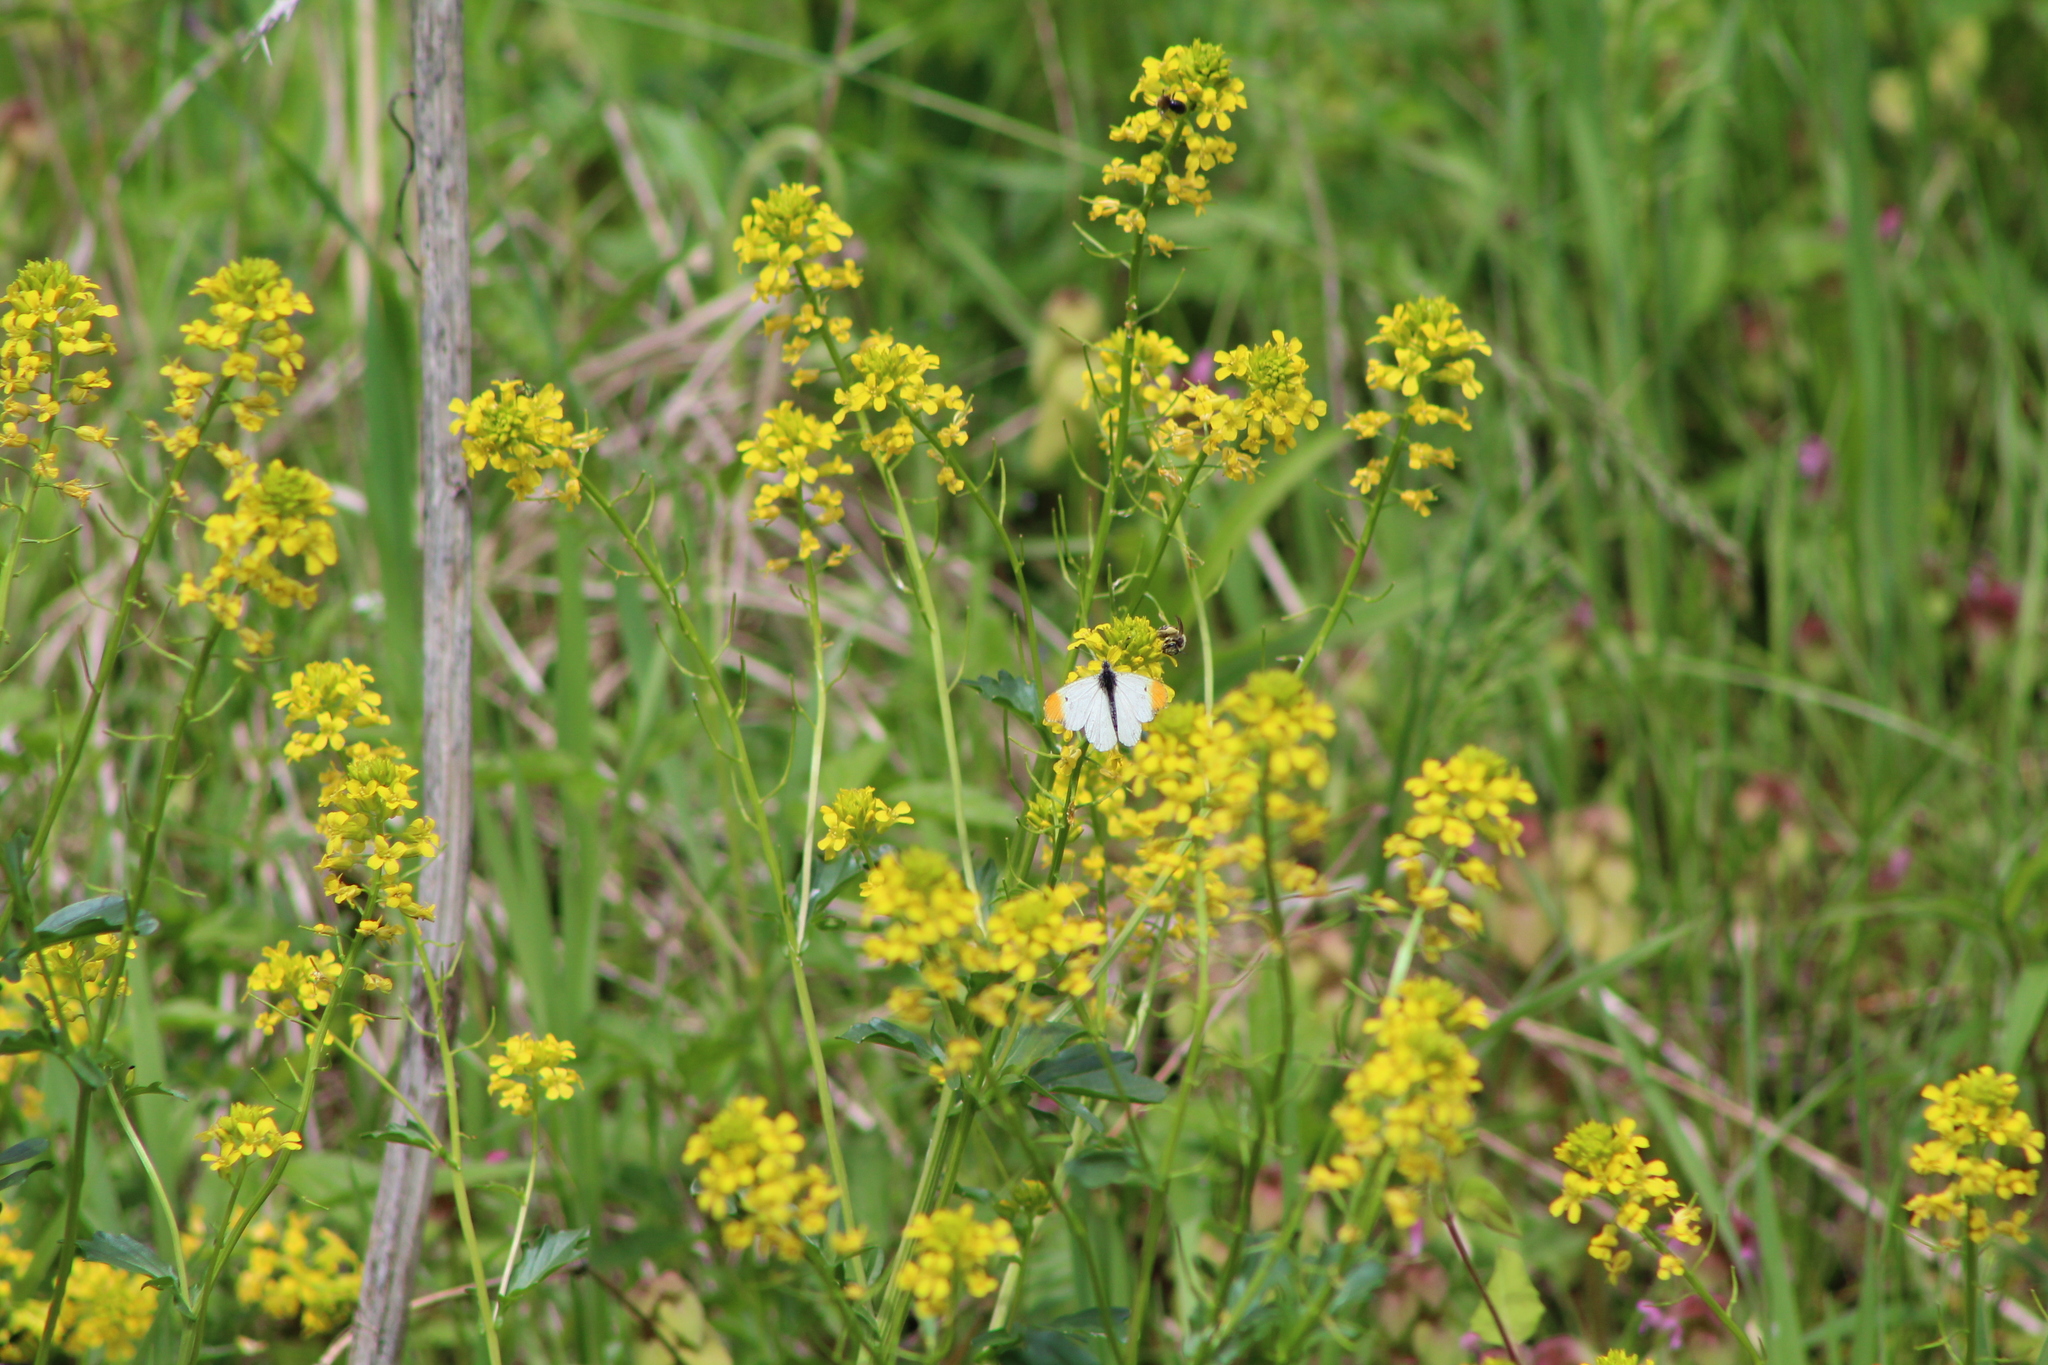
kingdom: Animalia
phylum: Arthropoda
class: Insecta
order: Lepidoptera
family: Pieridae
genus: Anthocharis
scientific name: Anthocharis midea
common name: Falcate orangetip
